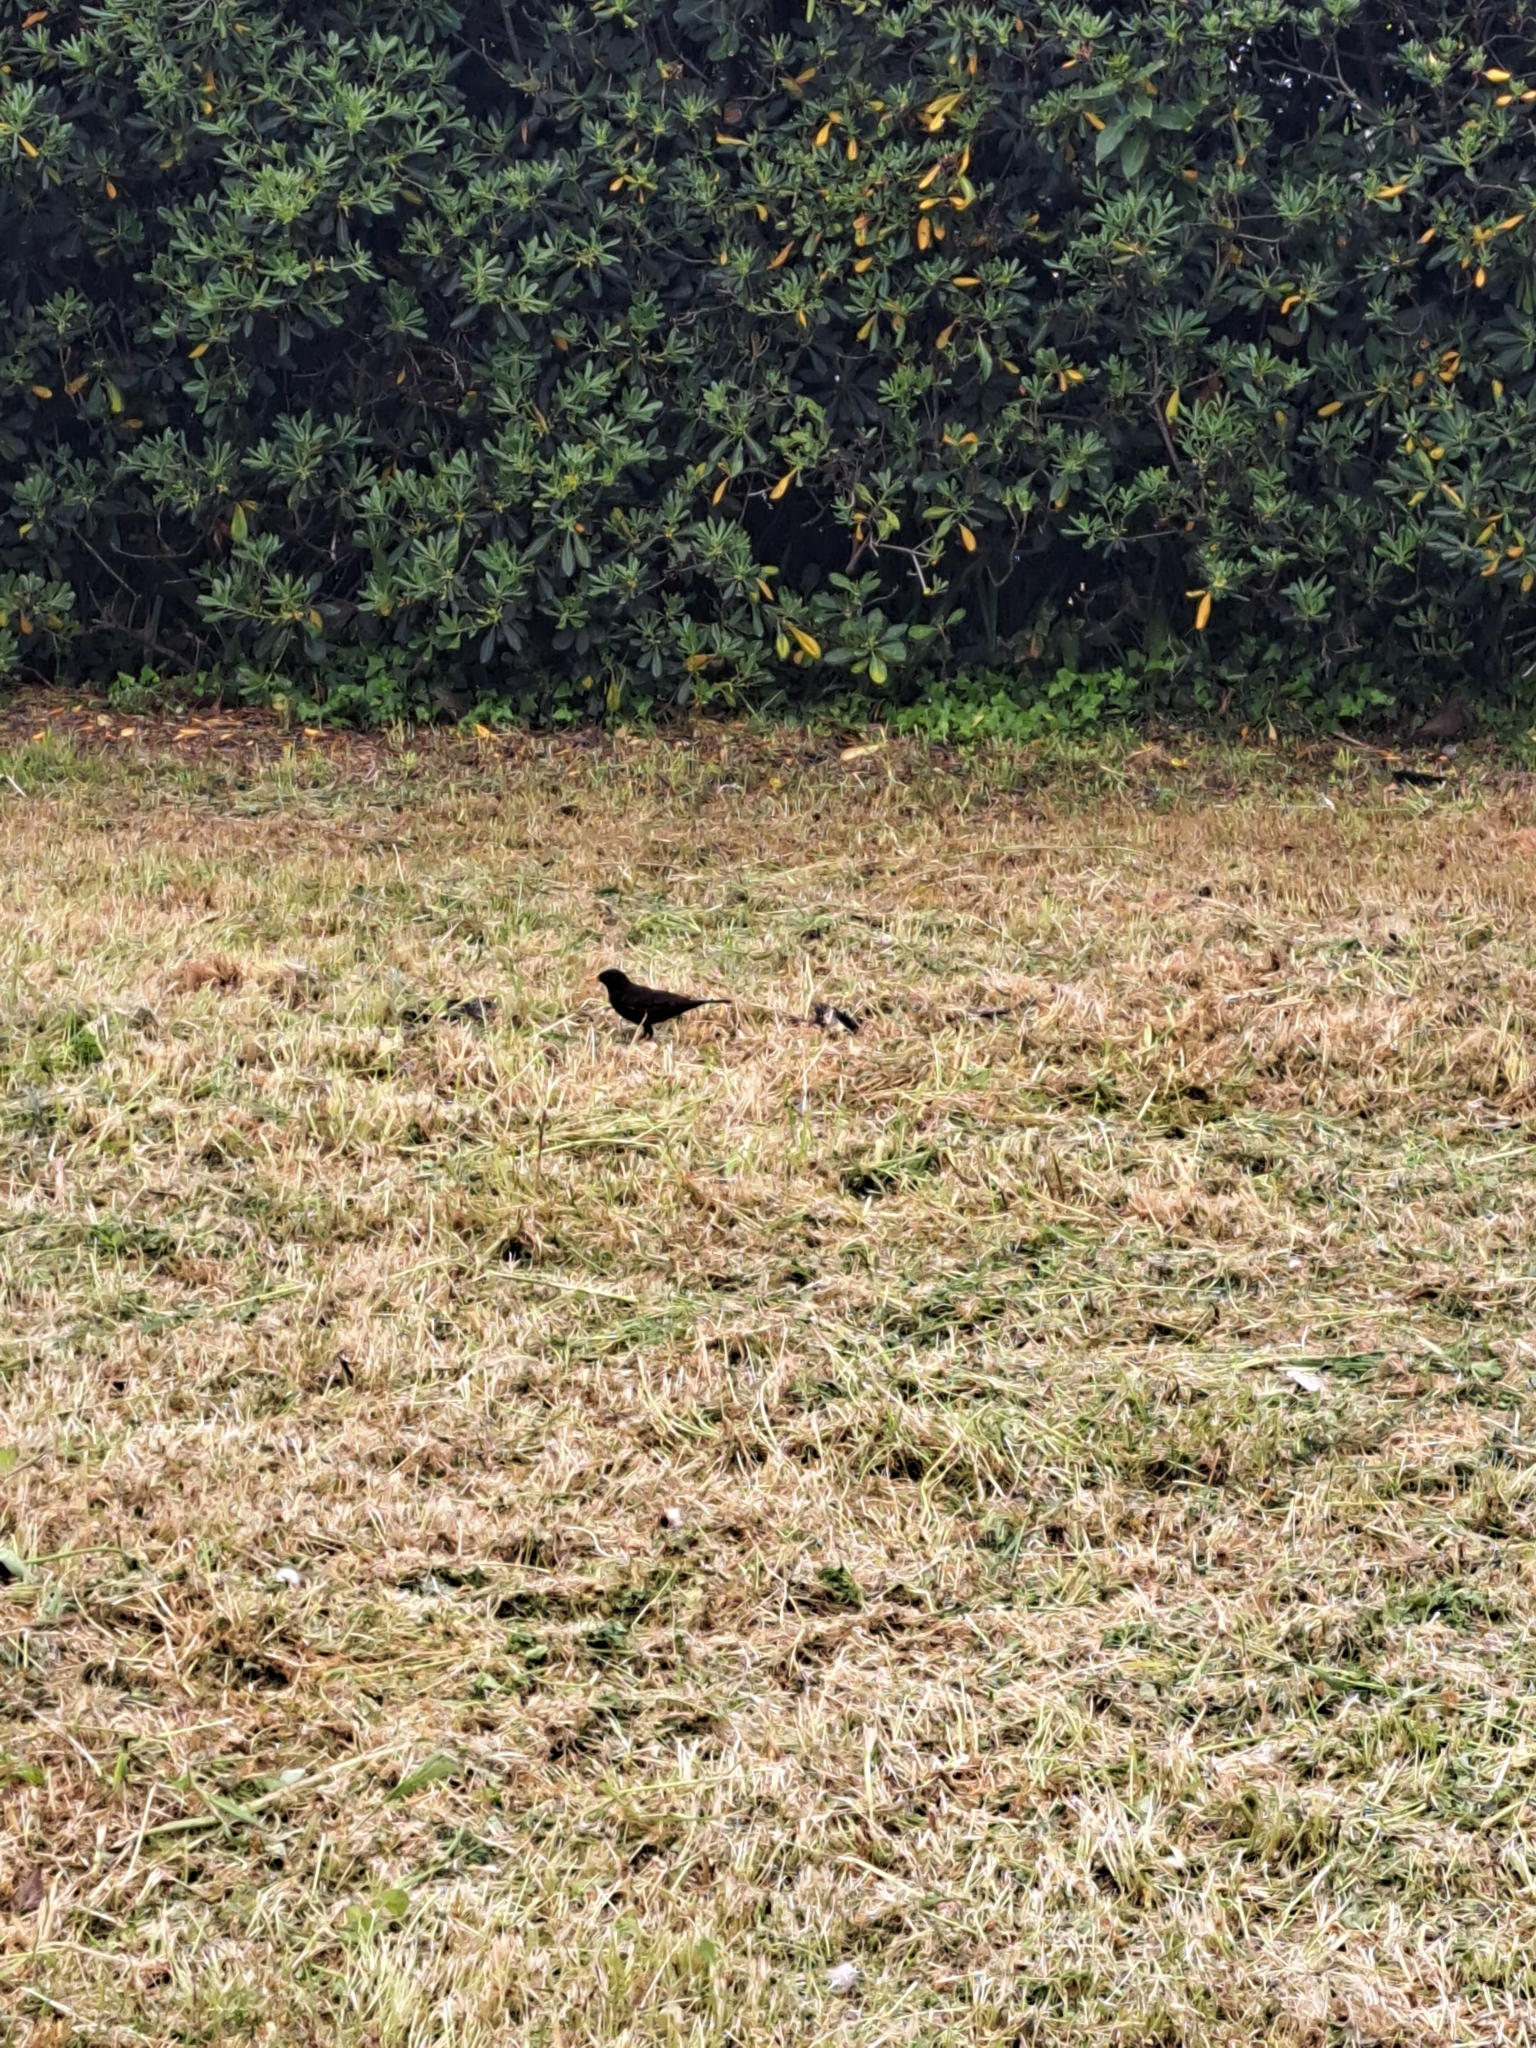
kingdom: Animalia
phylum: Chordata
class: Aves
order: Passeriformes
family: Turdidae
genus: Turdus
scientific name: Turdus merula
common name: Common blackbird
